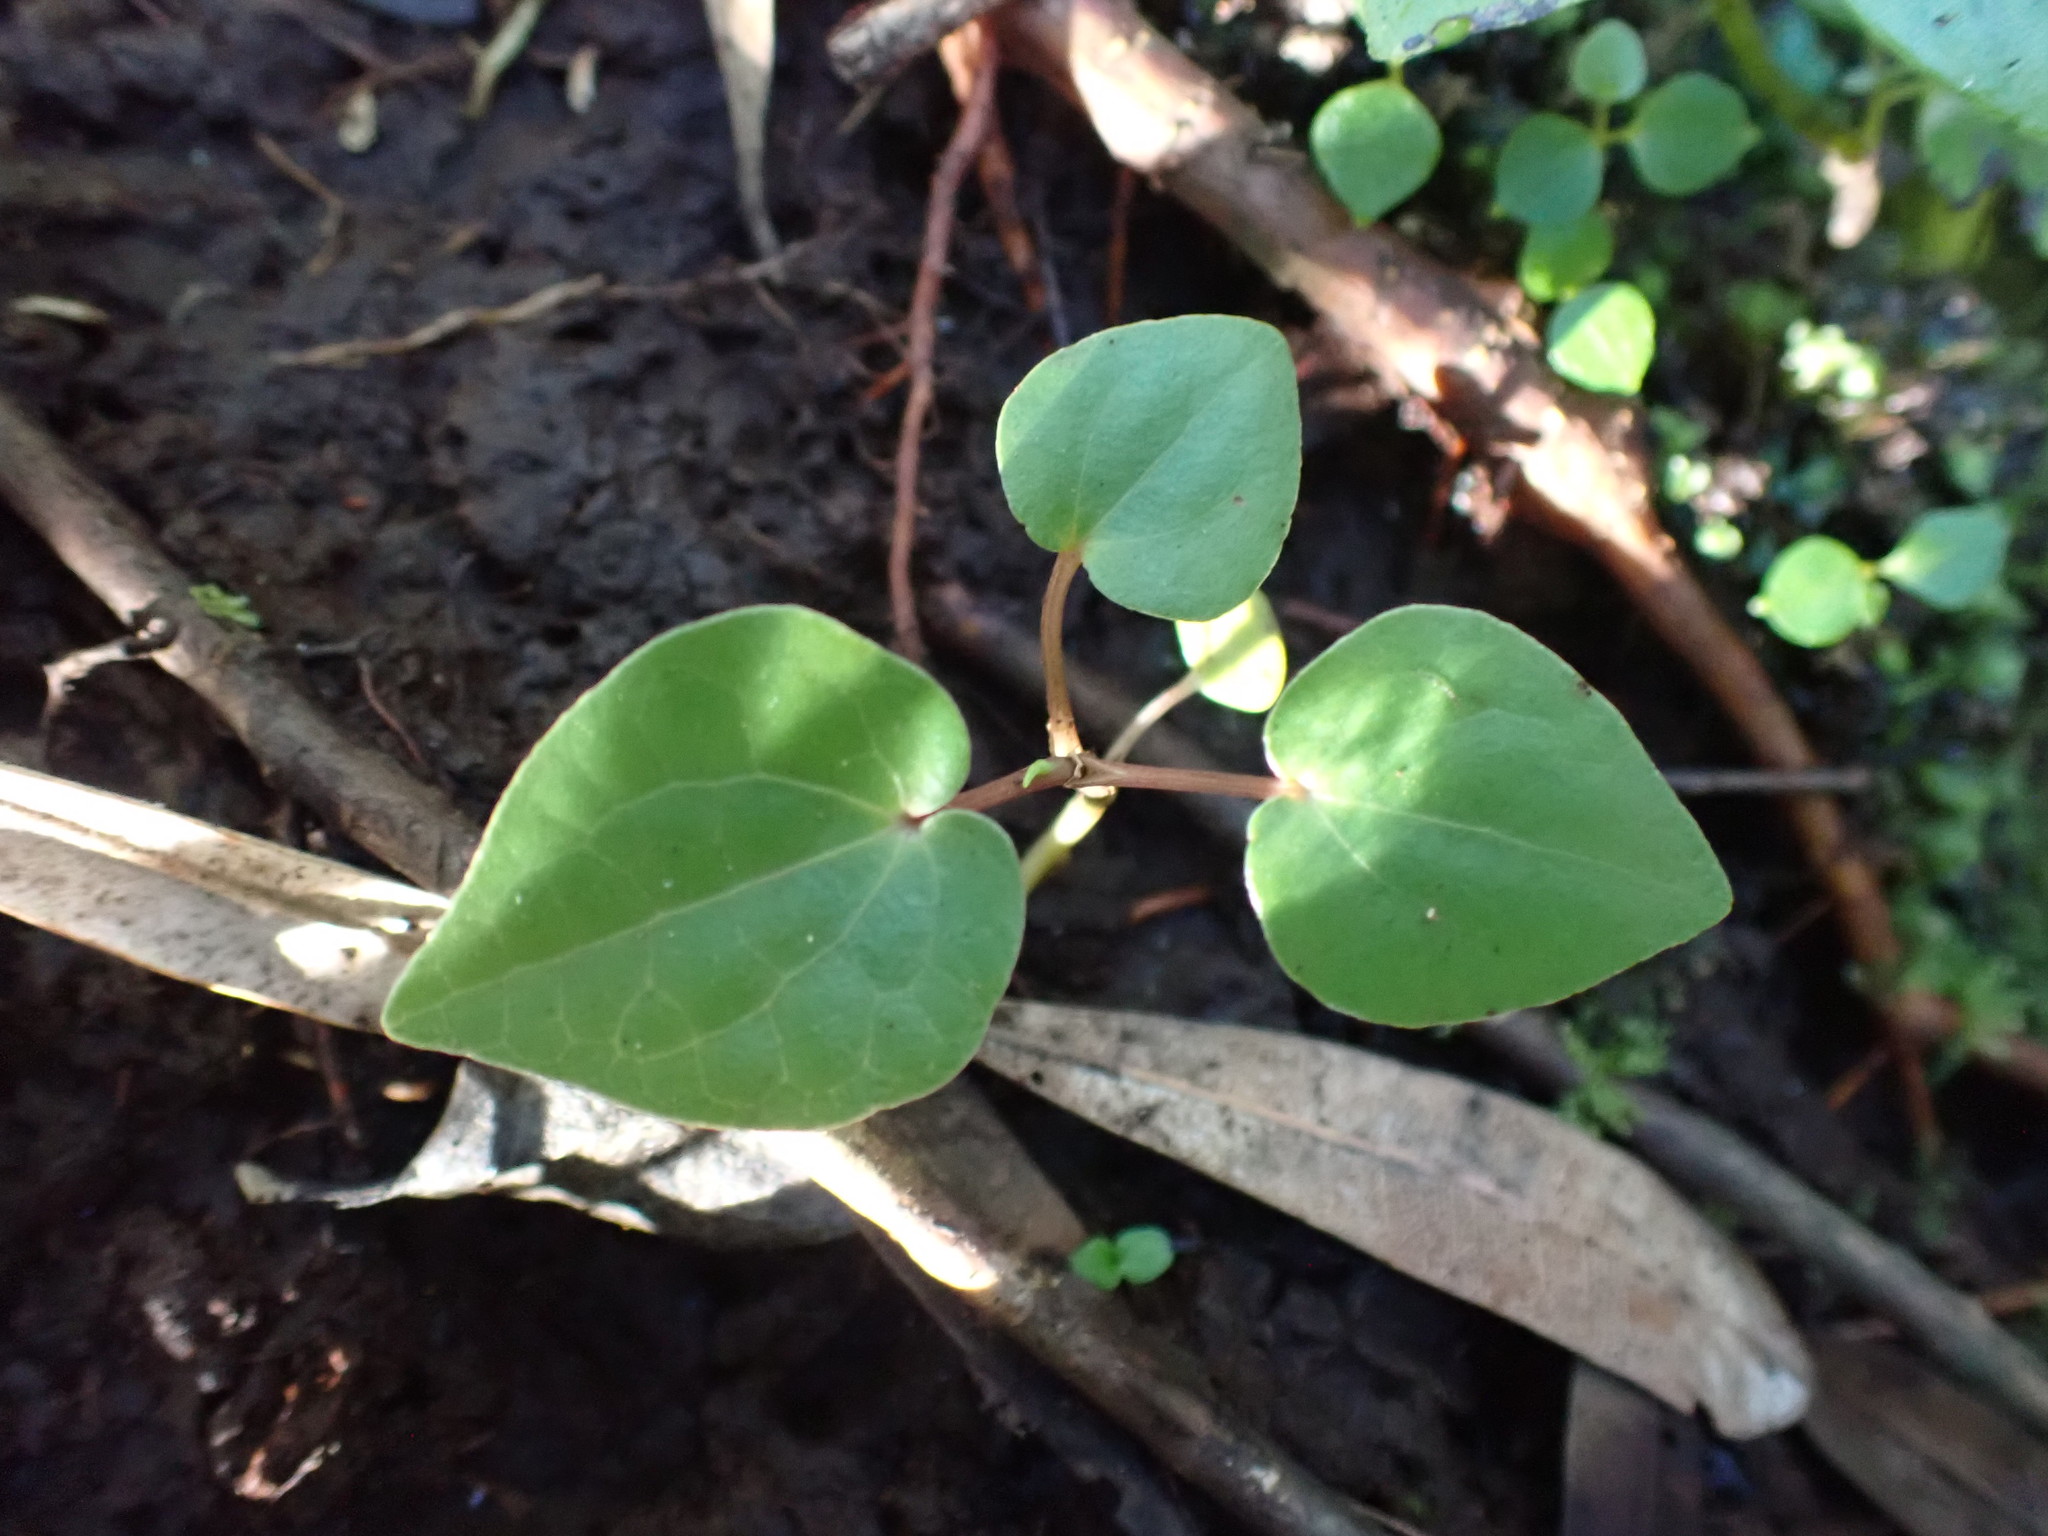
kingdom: Plantae
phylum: Tracheophyta
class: Magnoliopsida
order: Piperales
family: Piperaceae
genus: Macropiper
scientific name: Macropiper excelsum
